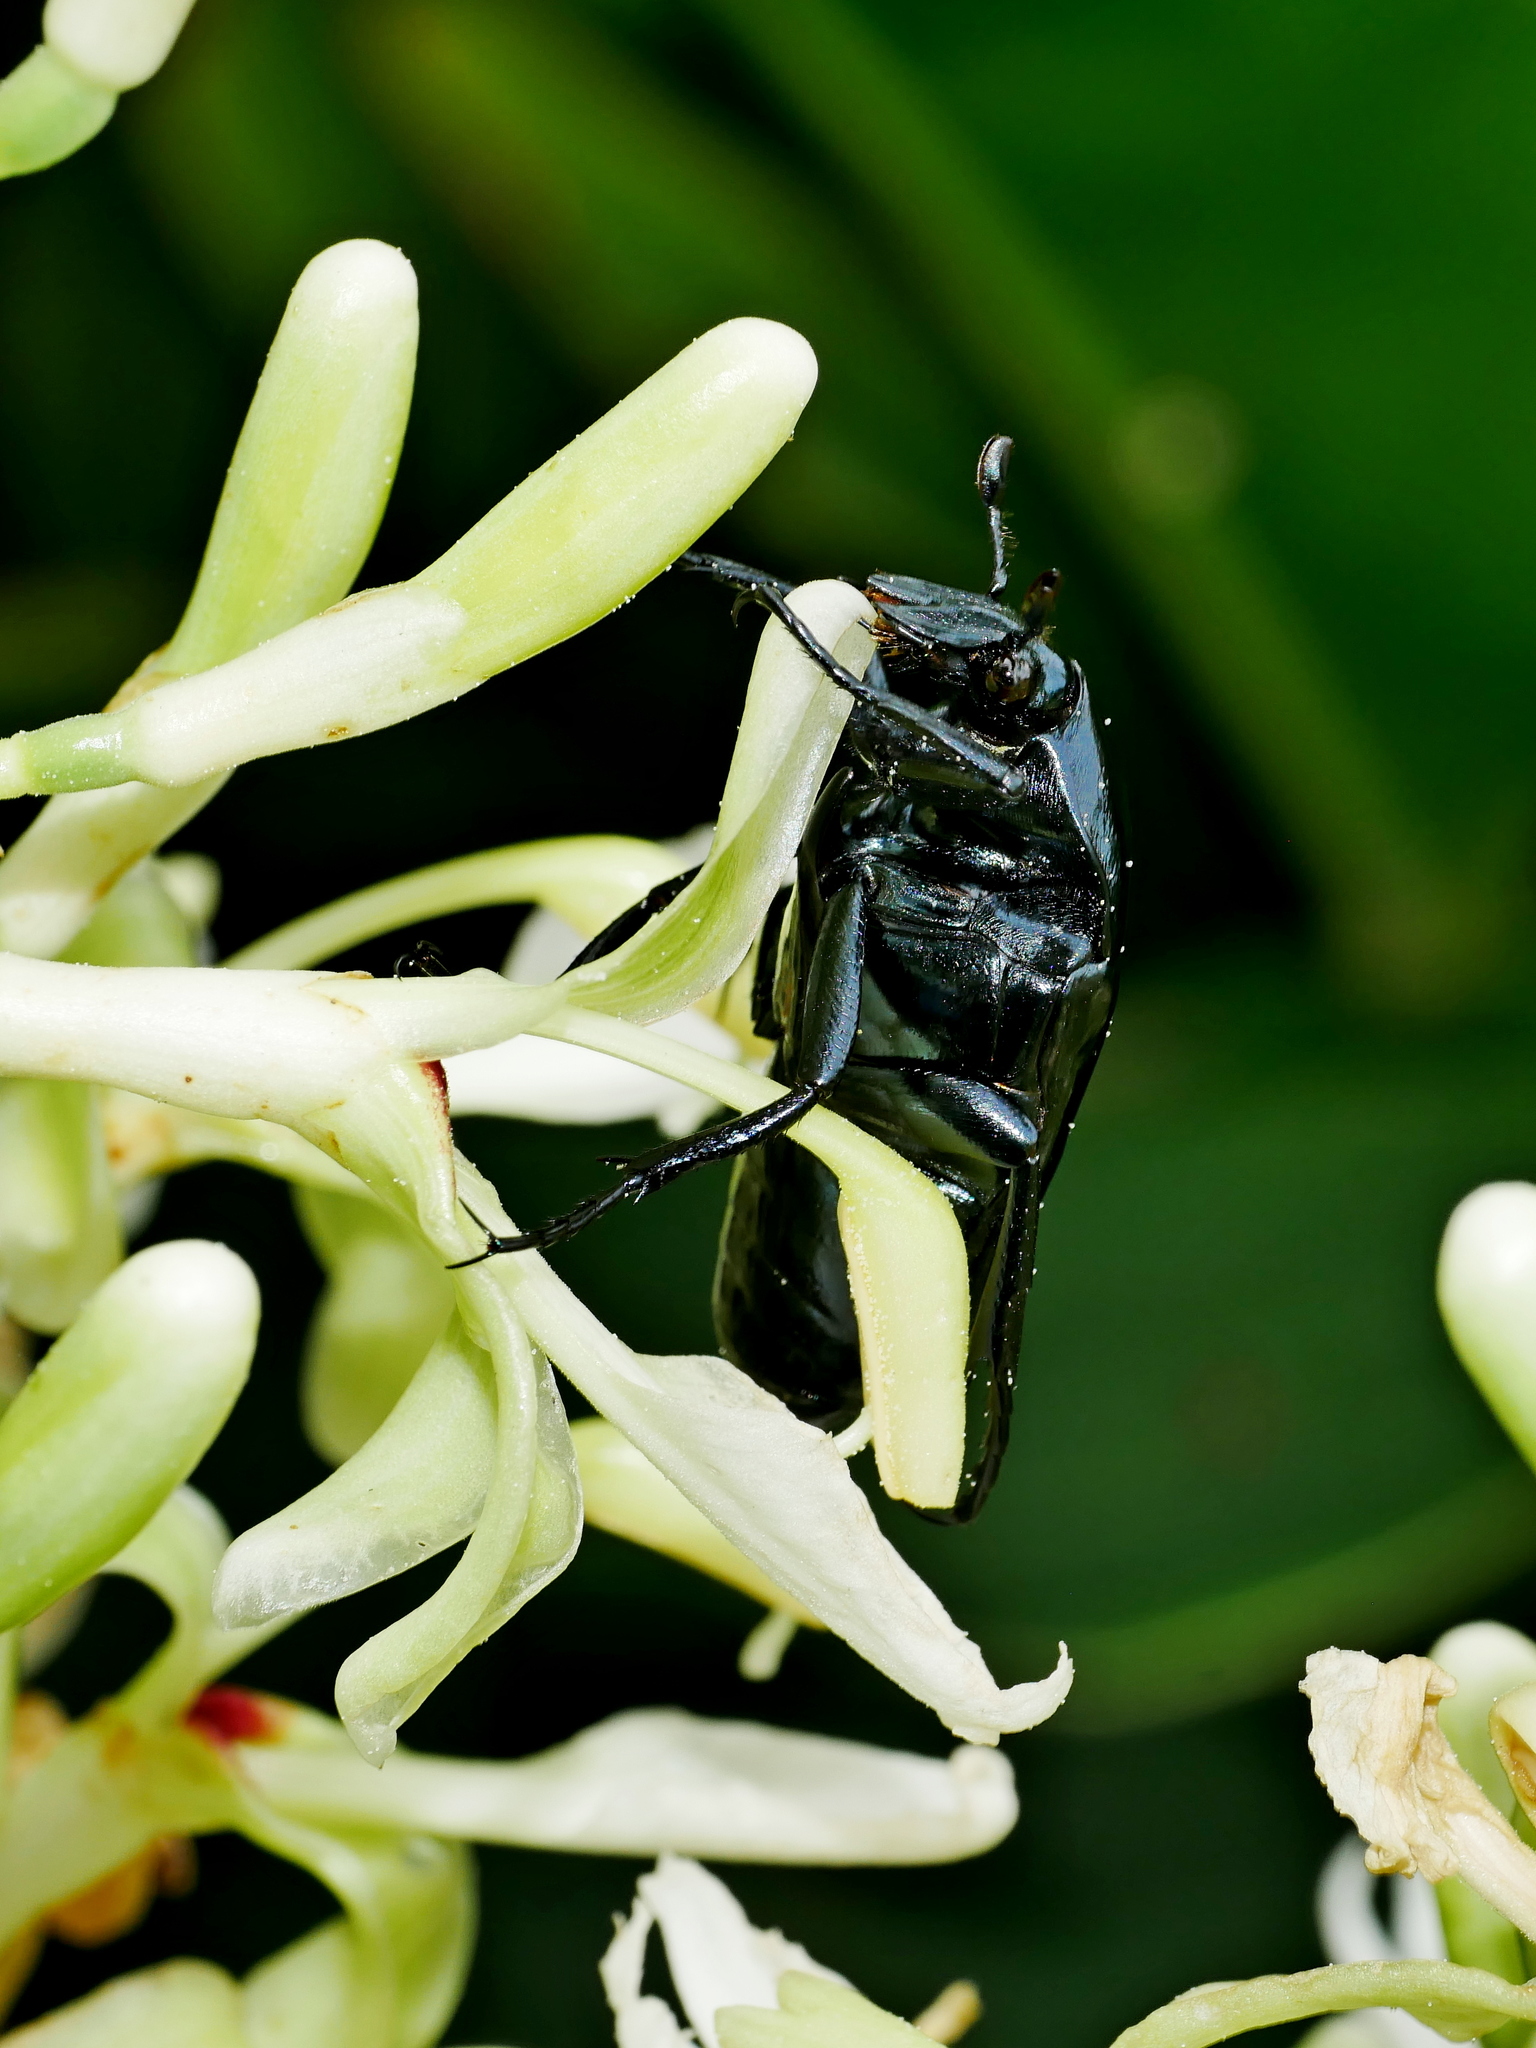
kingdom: Animalia
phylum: Arthropoda
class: Insecta
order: Coleoptera
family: Scarabaeidae
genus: Macronota
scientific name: Macronota shangaicus
